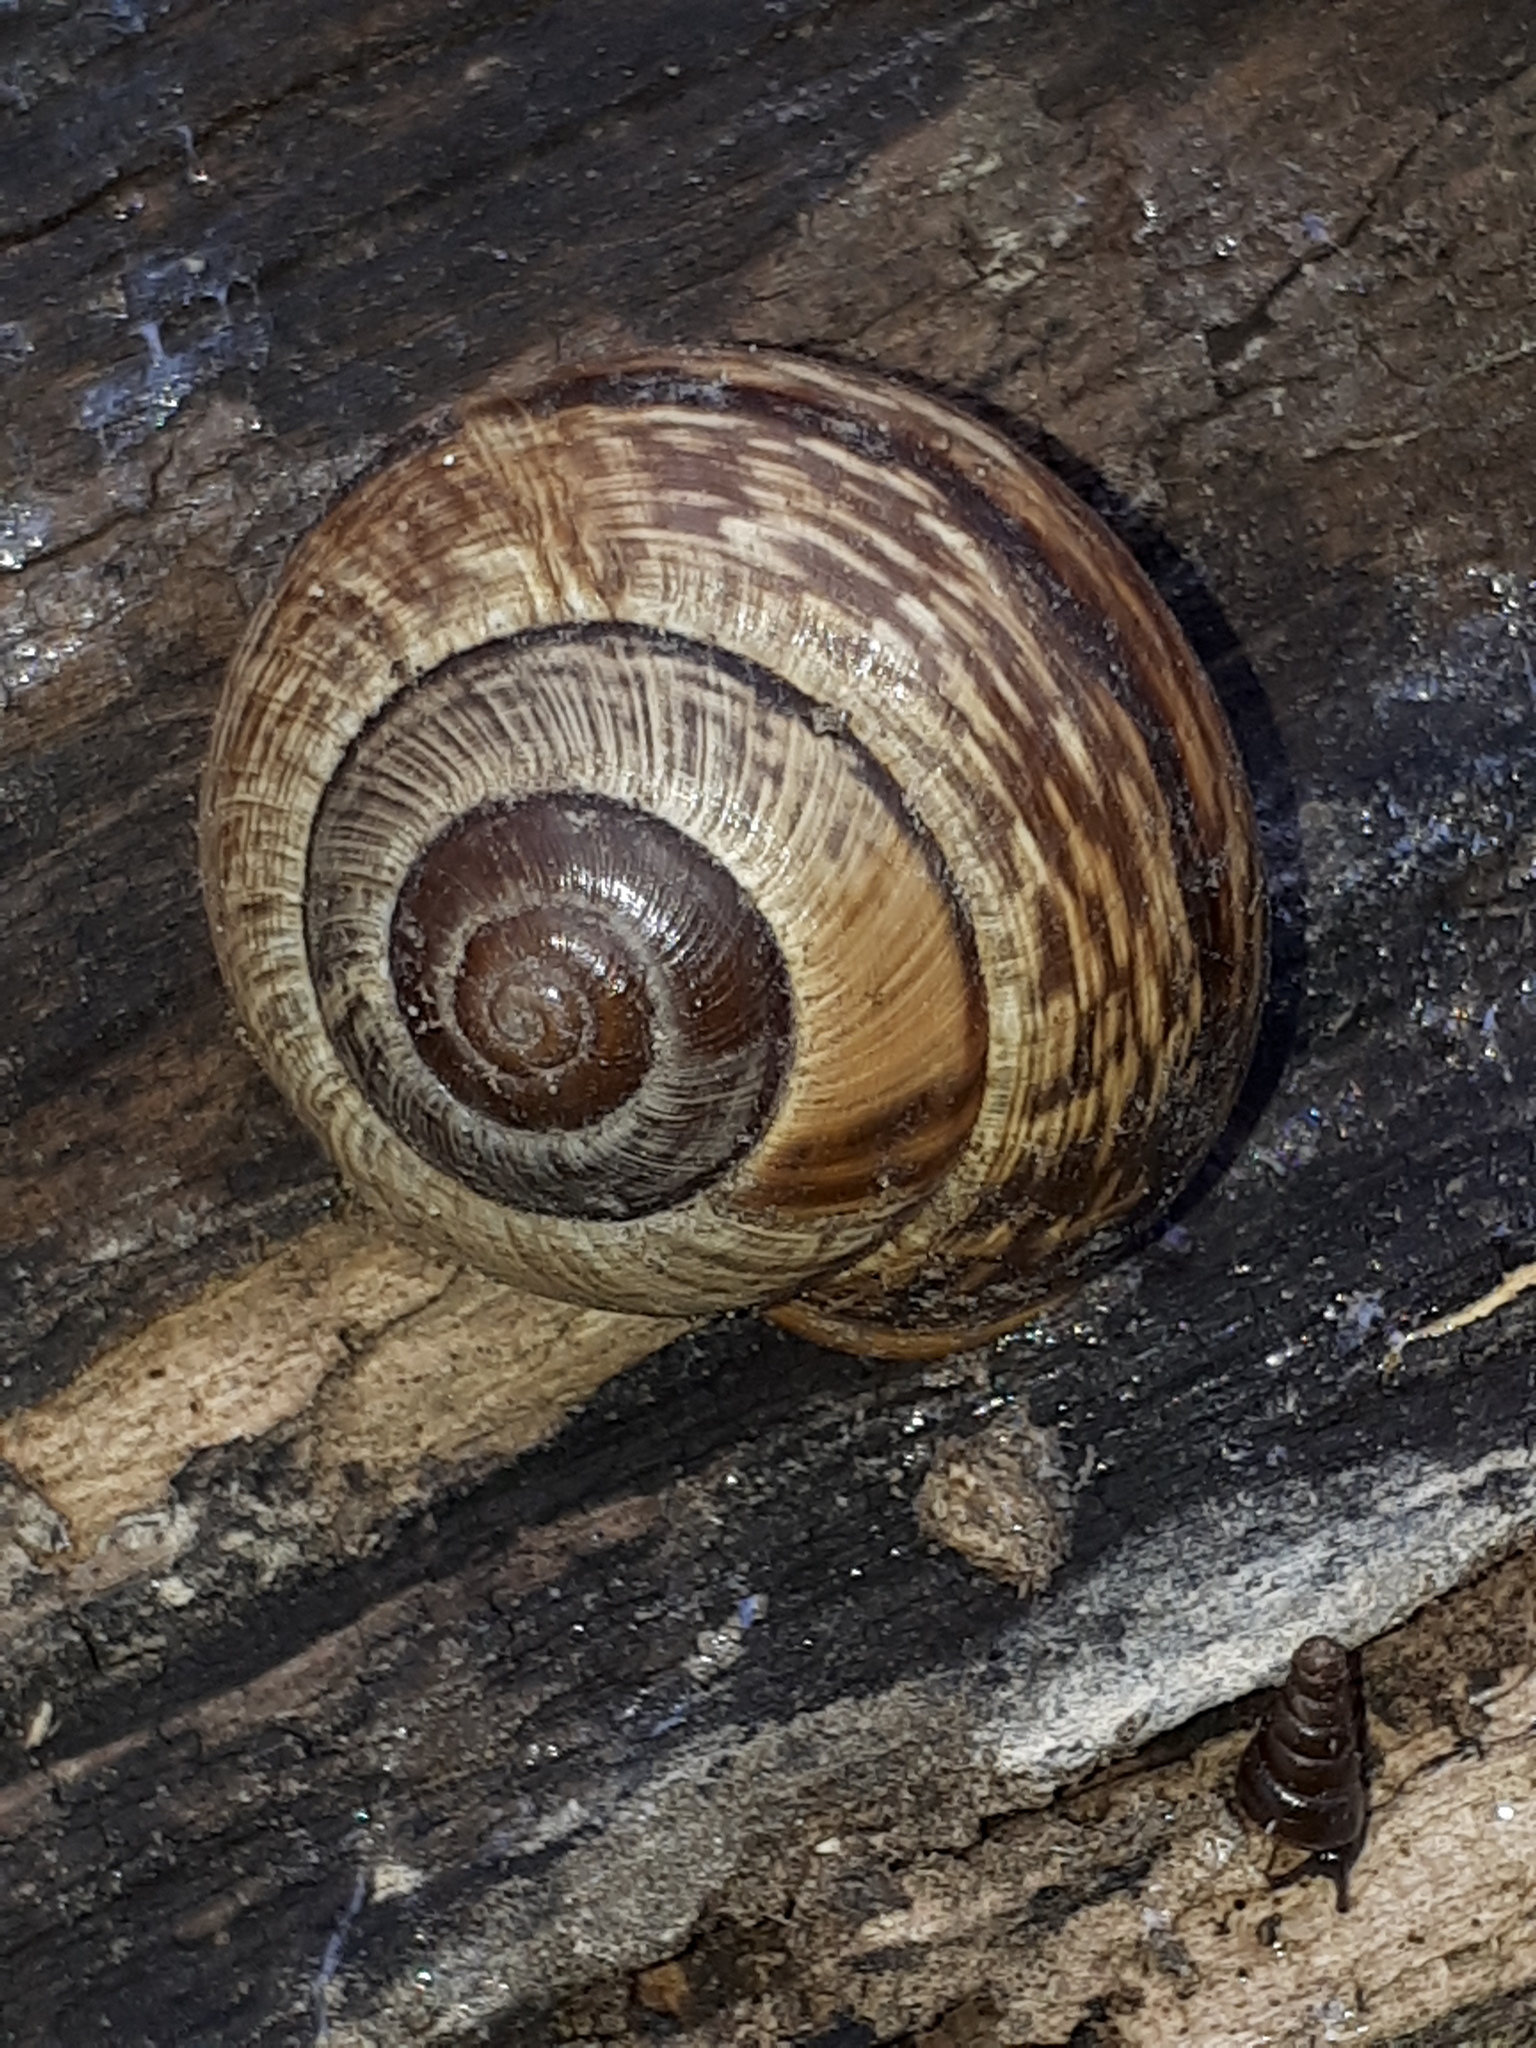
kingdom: Animalia
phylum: Mollusca
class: Gastropoda
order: Stylommatophora
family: Helicidae
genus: Arianta
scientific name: Arianta arbustorum
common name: Copse snail
